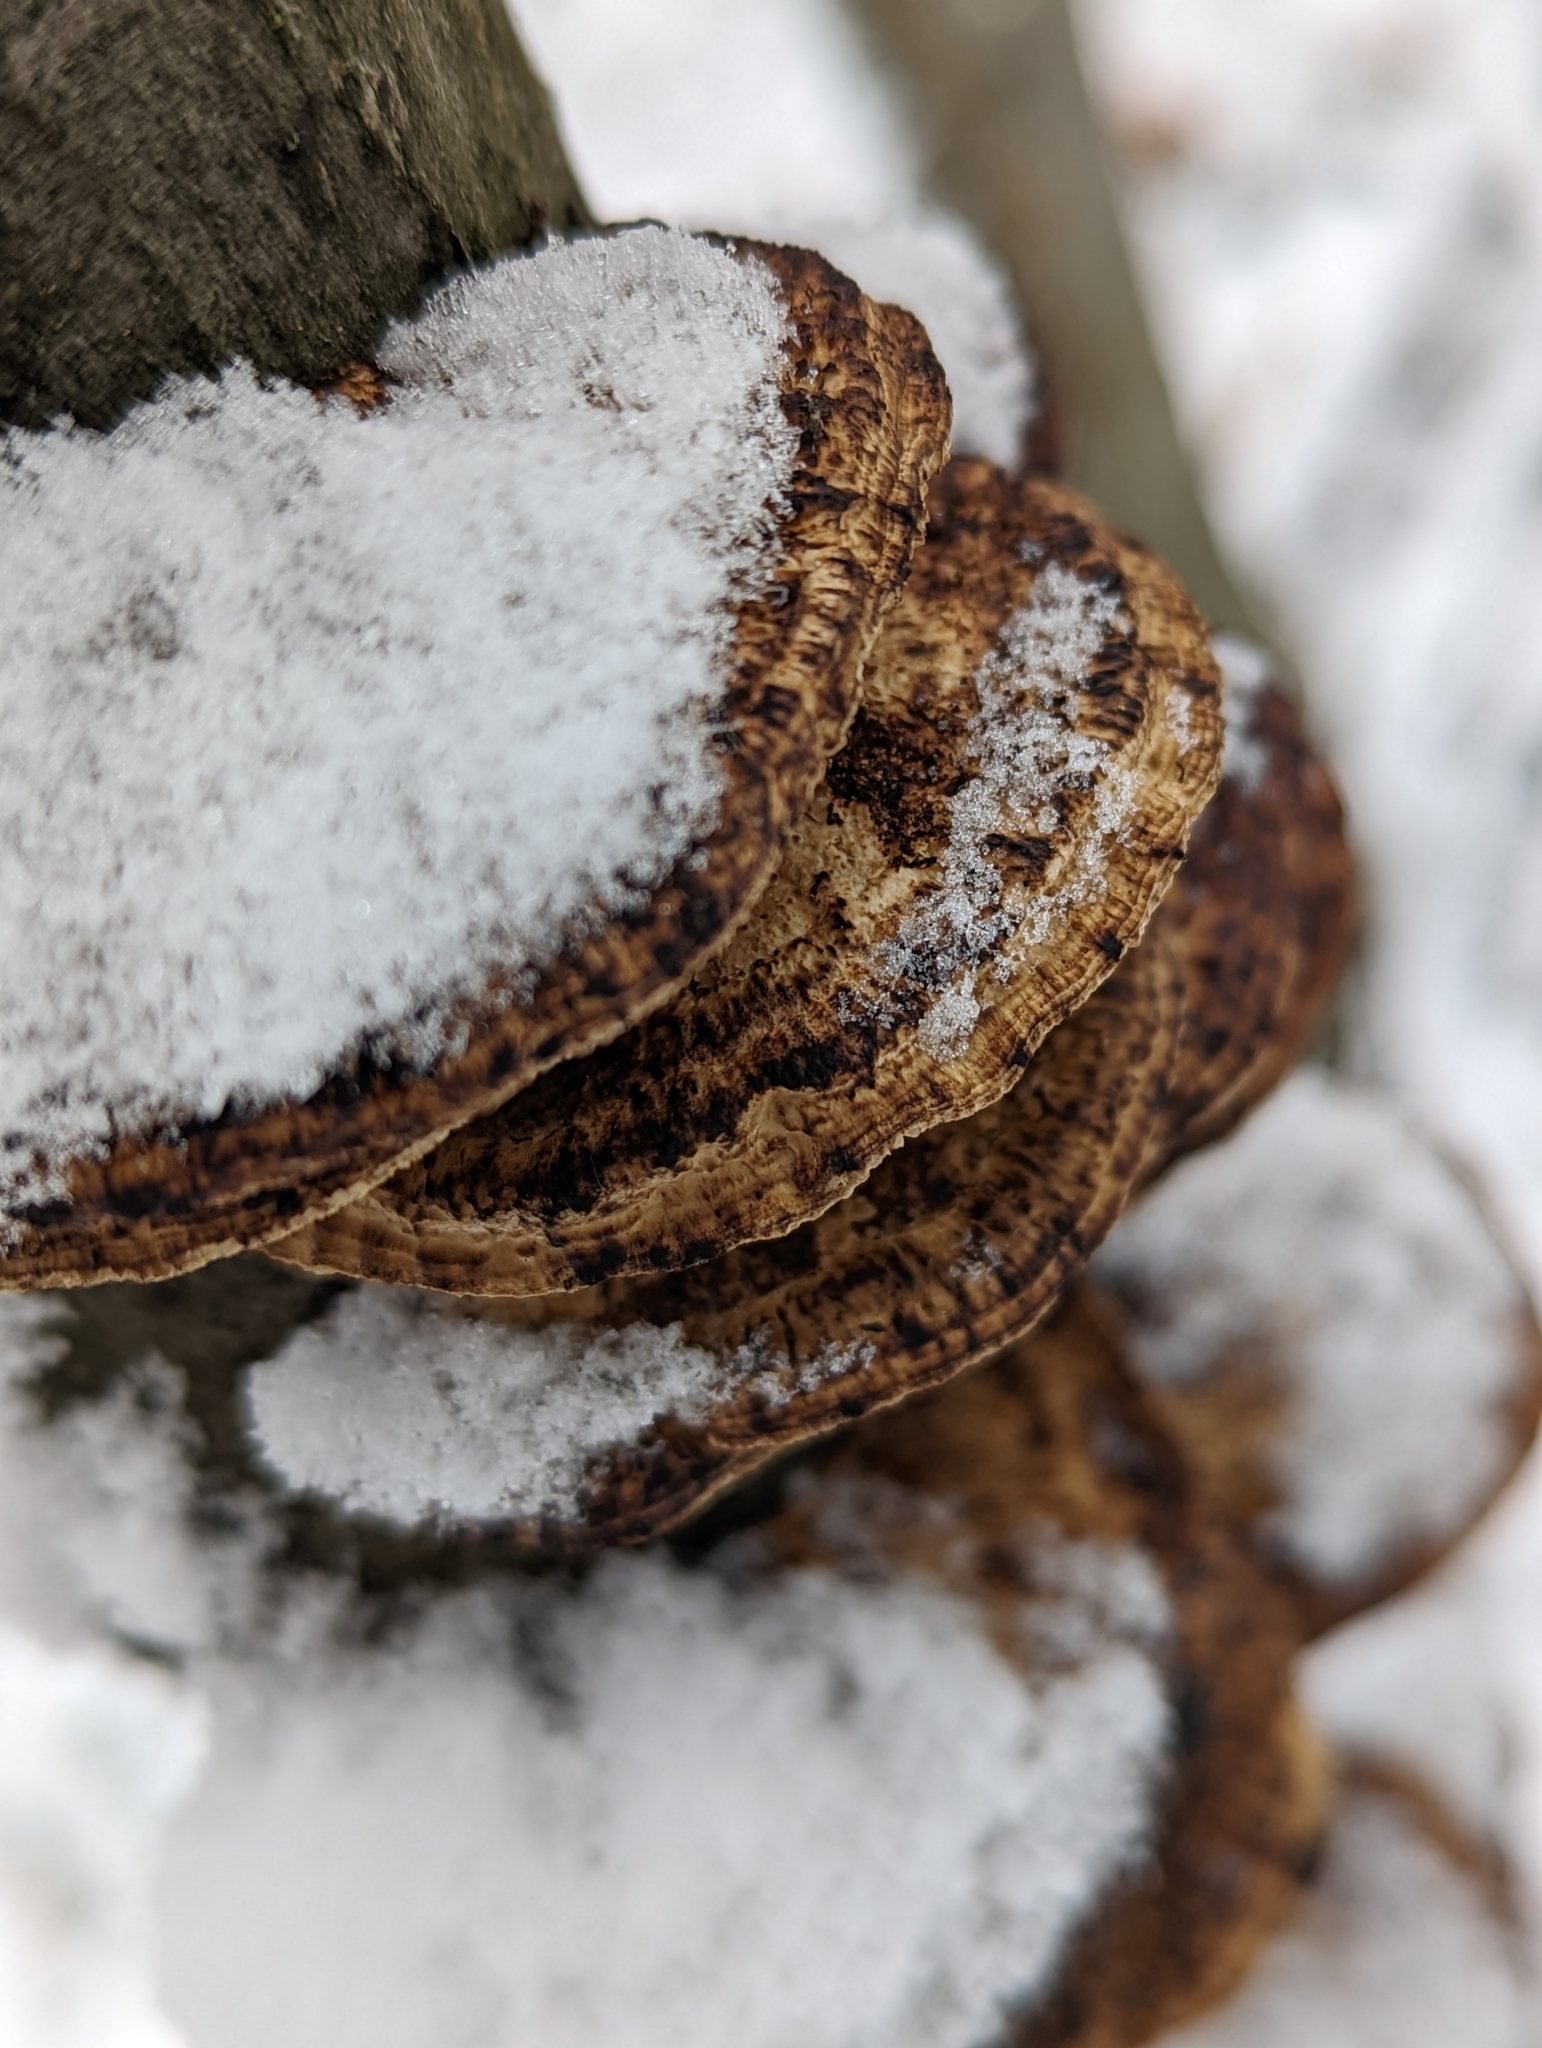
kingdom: Fungi
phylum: Basidiomycota
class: Agaricomycetes
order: Polyporales
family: Polyporaceae
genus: Daedaleopsis
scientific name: Daedaleopsis confragosa
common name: Blushing bracket
